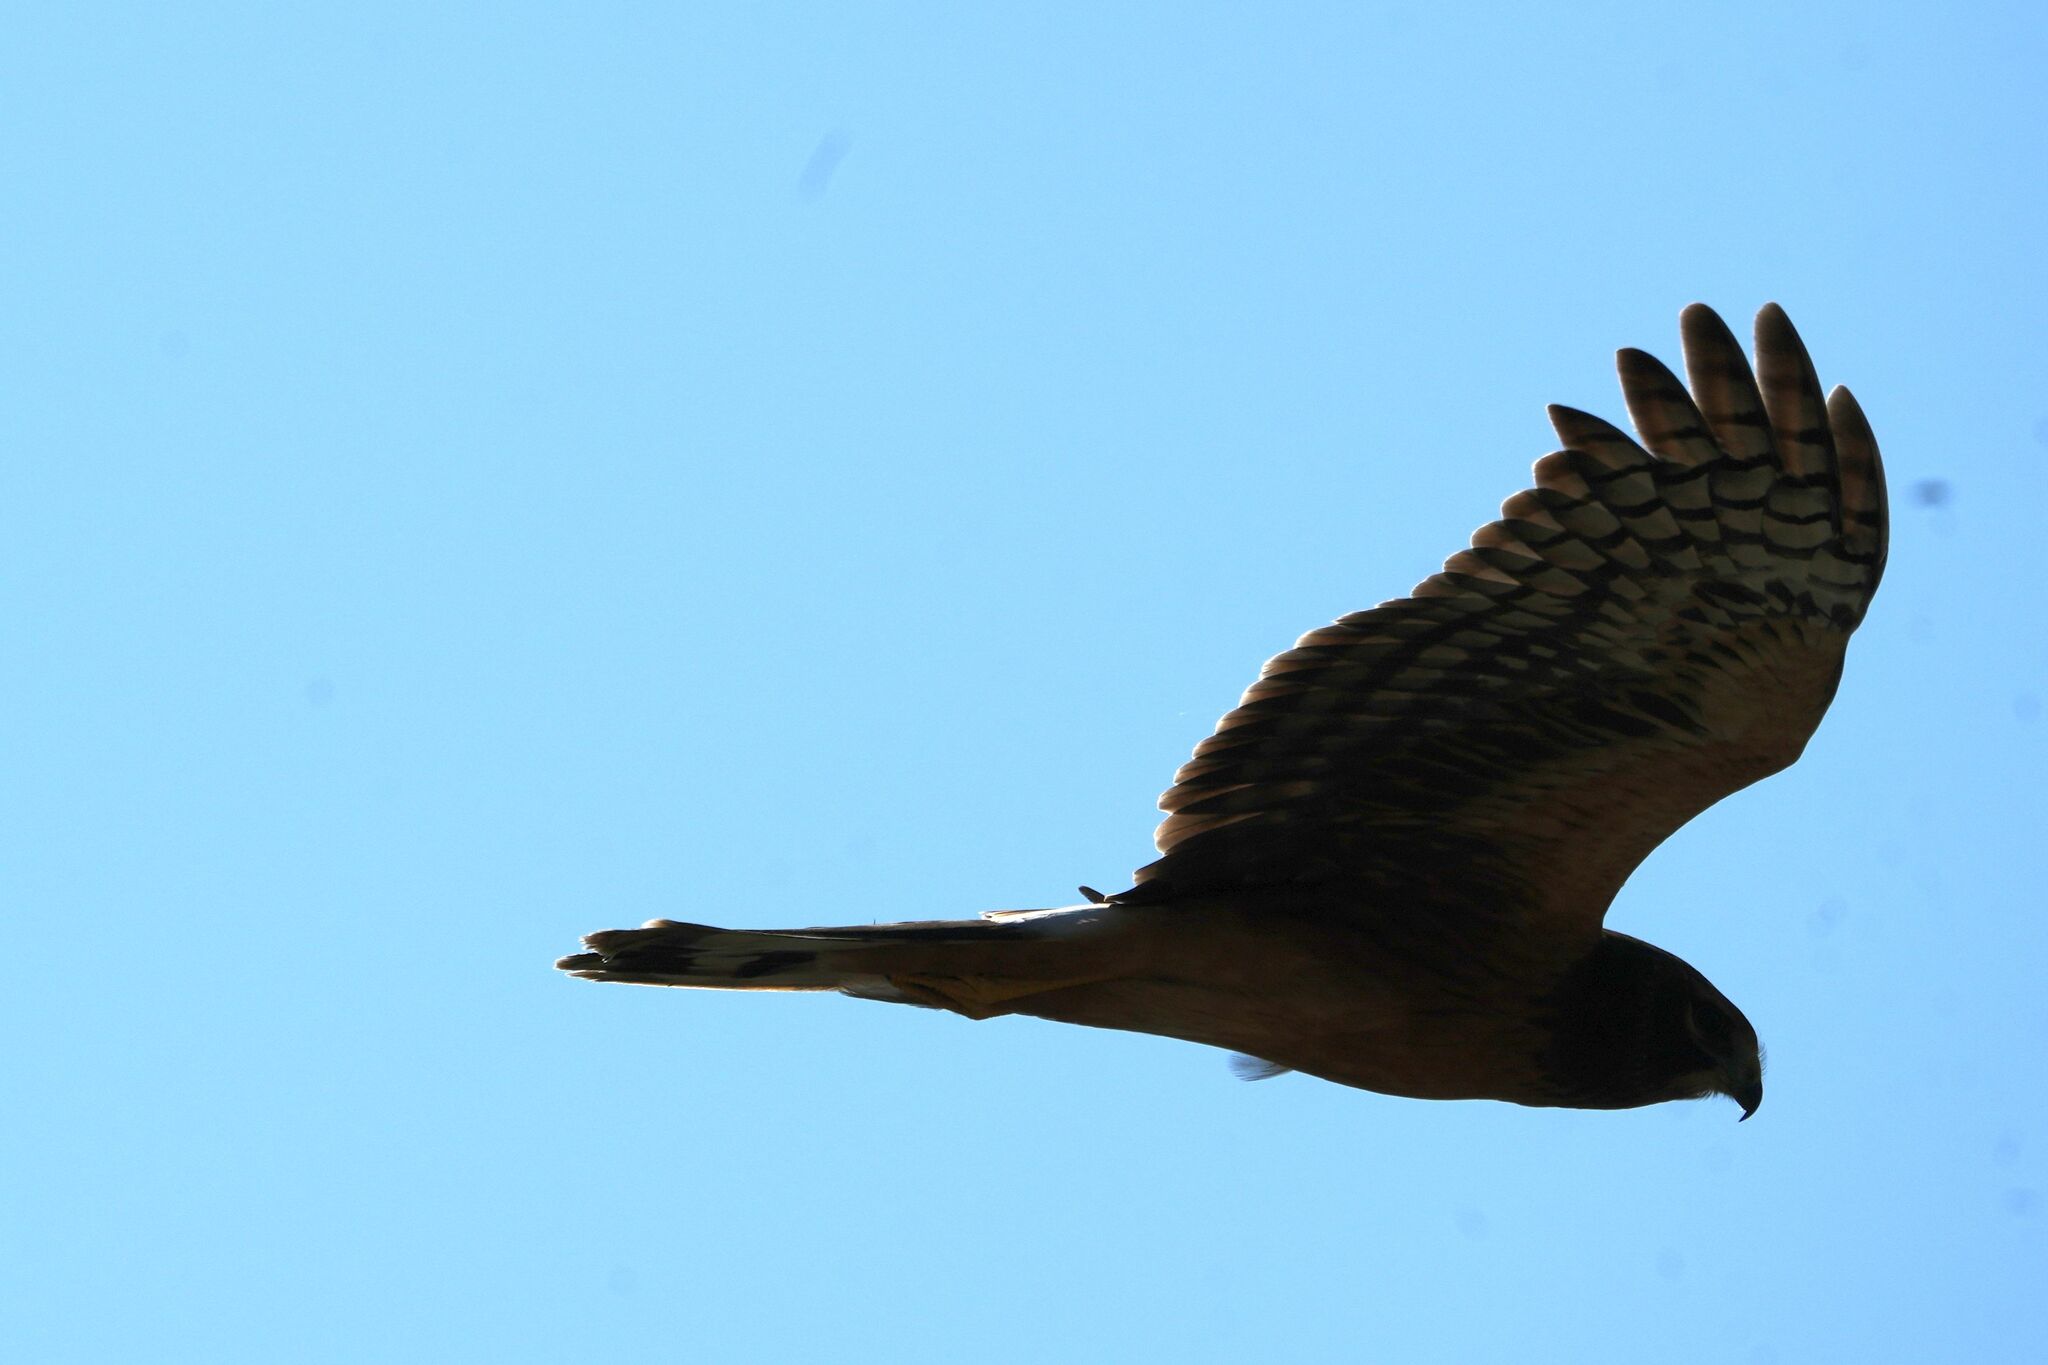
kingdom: Animalia
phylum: Chordata
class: Aves
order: Accipitriformes
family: Accipitridae
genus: Circus
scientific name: Circus cyaneus
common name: Hen harrier
